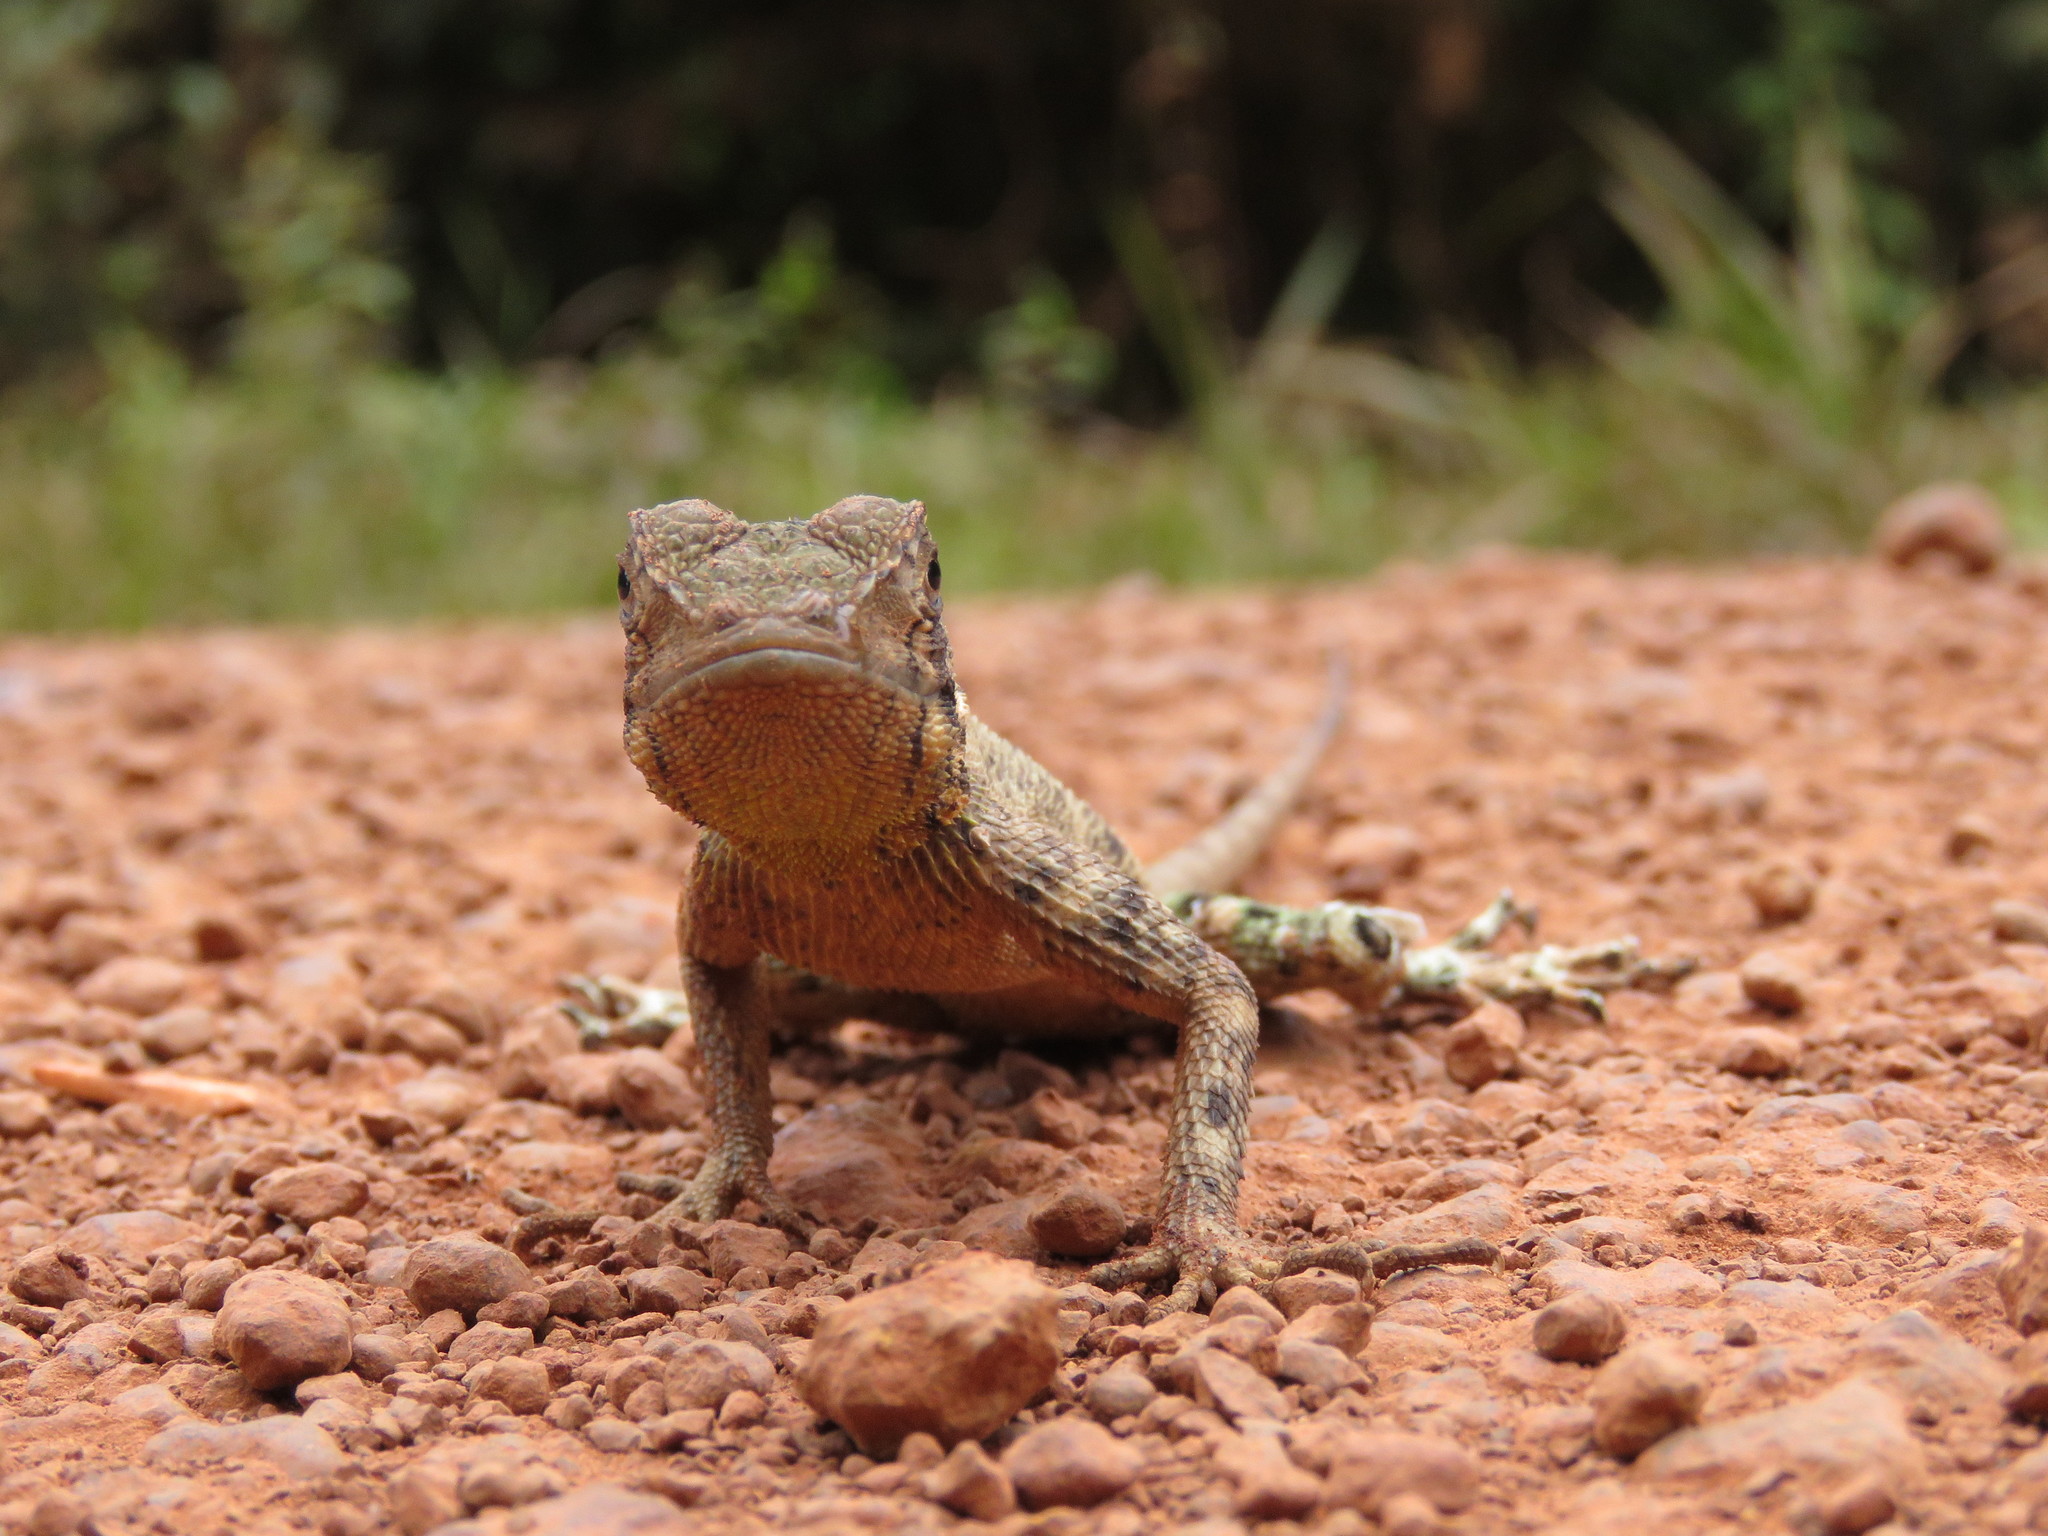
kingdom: Animalia
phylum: Chordata
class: Squamata
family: Tropiduridae
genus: Plica
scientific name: Plica umbra
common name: Harlequin racerunner
